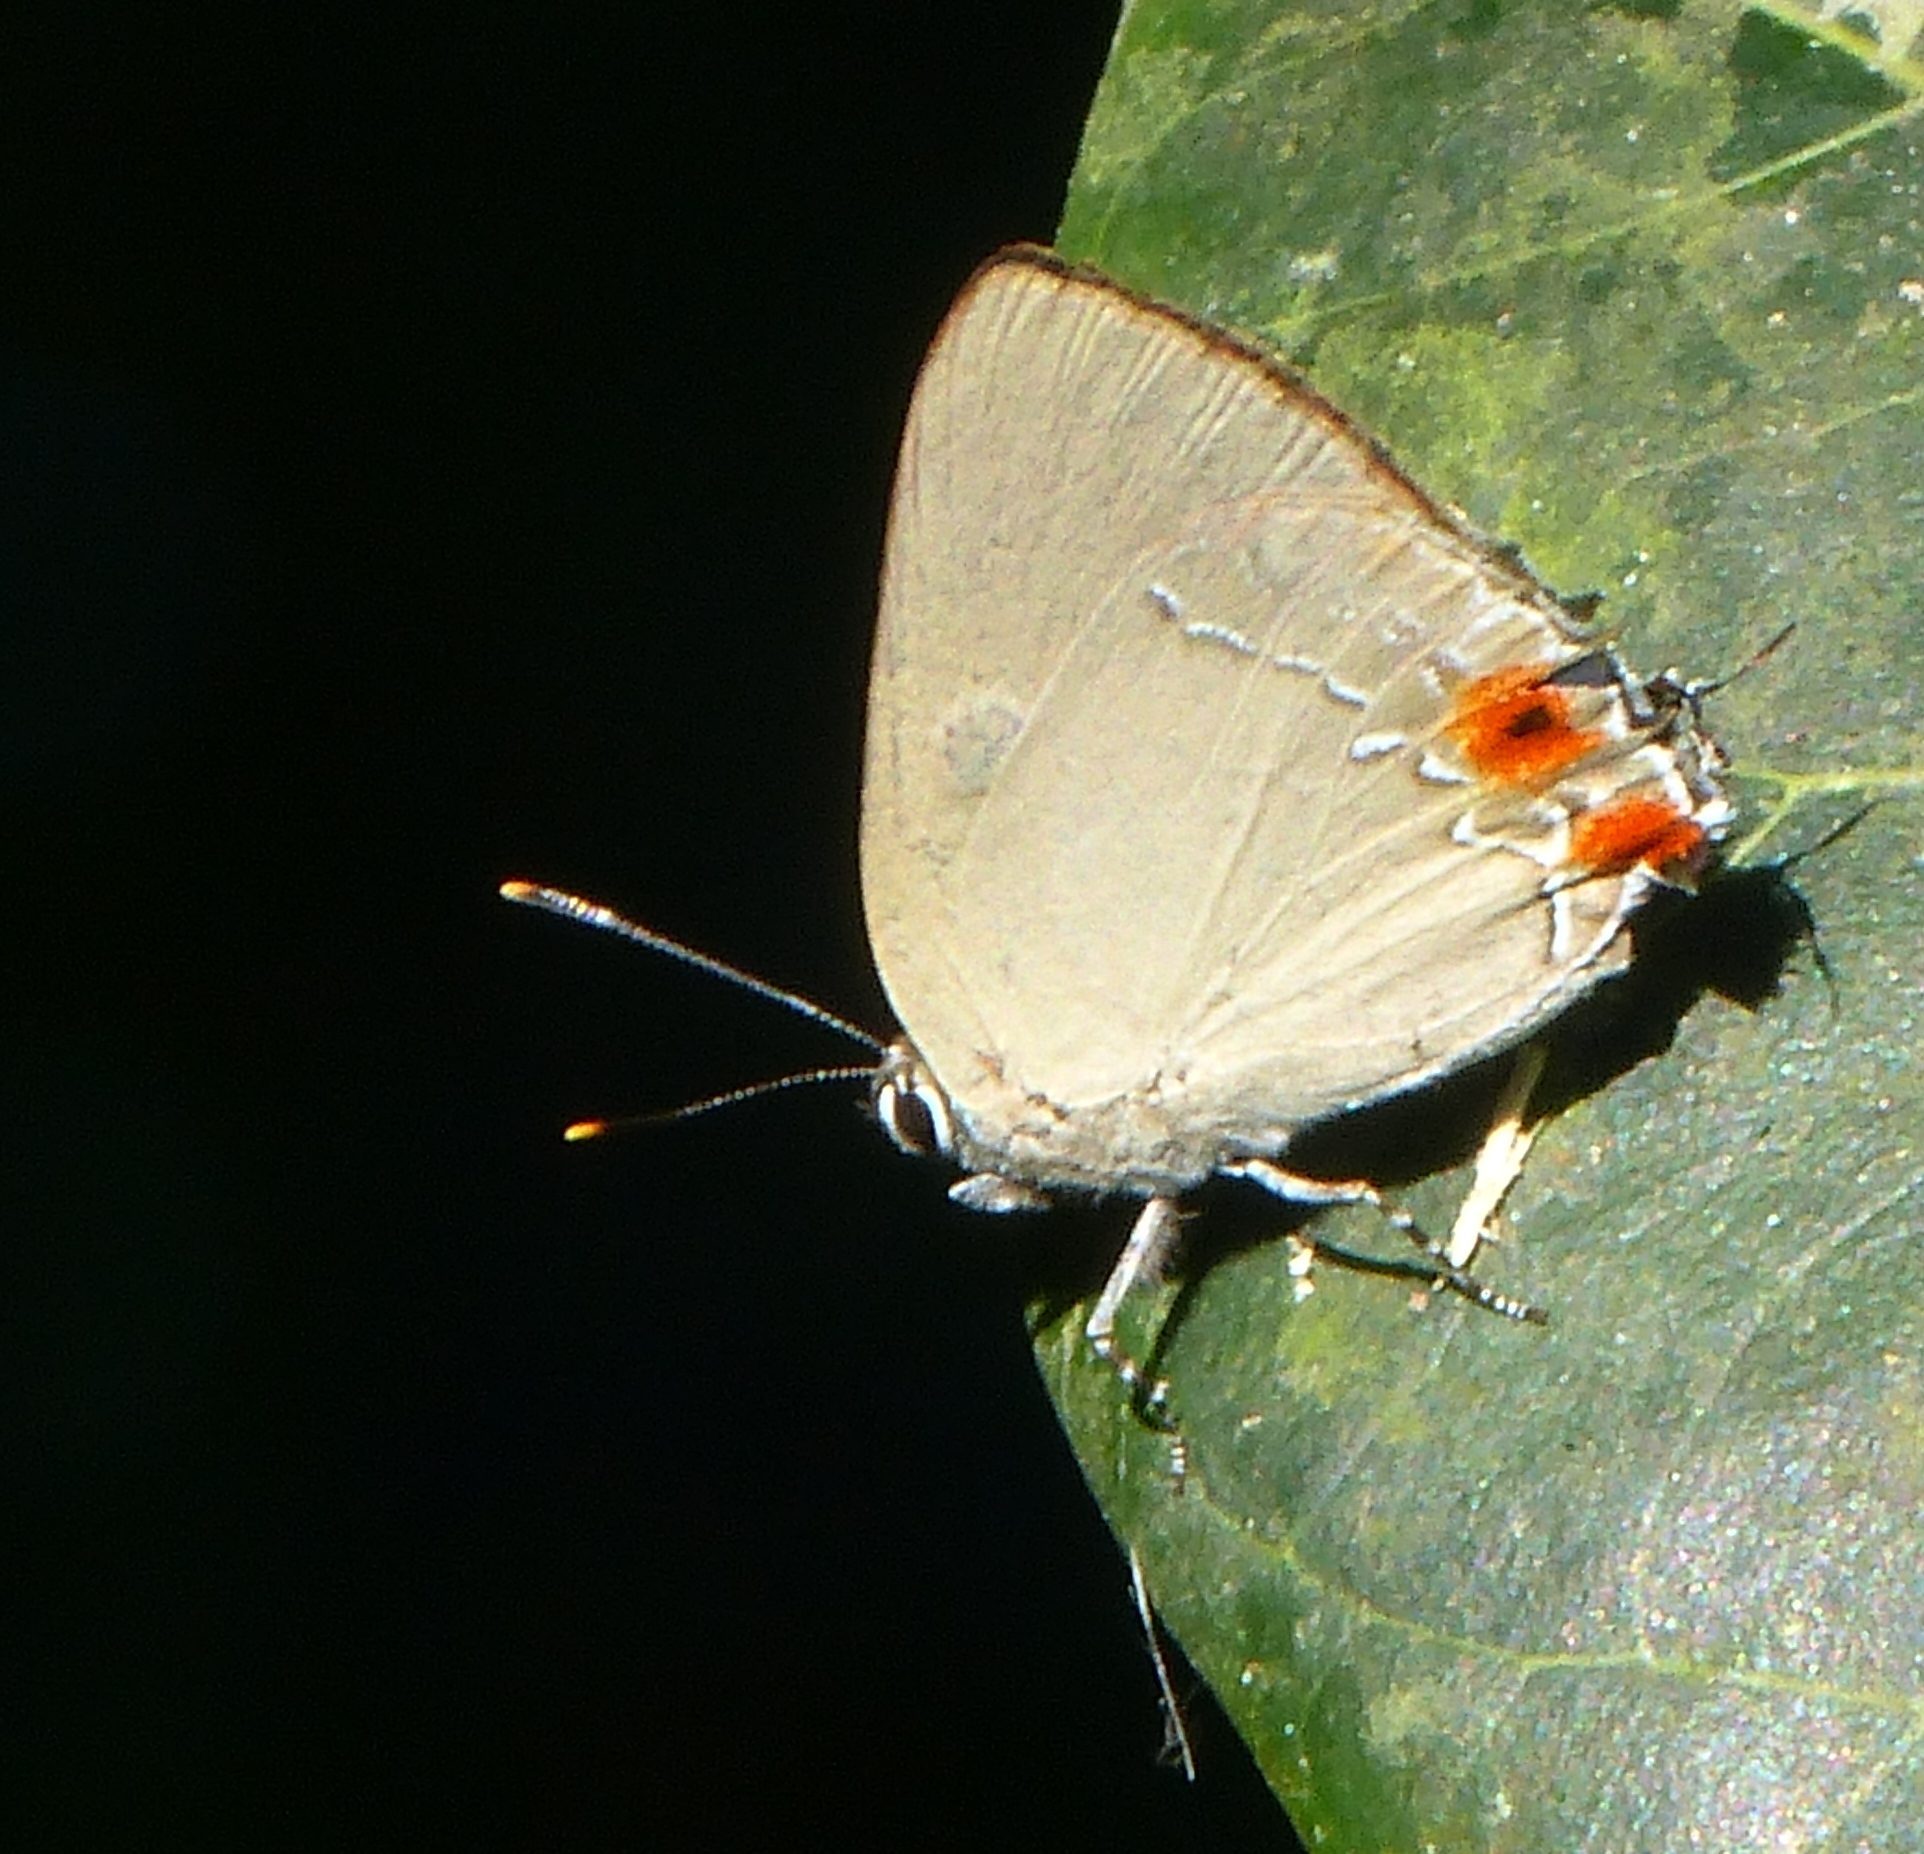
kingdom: Animalia
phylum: Arthropoda
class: Insecta
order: Lepidoptera
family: Lycaenidae
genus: Thecla
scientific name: Thecla ergina
